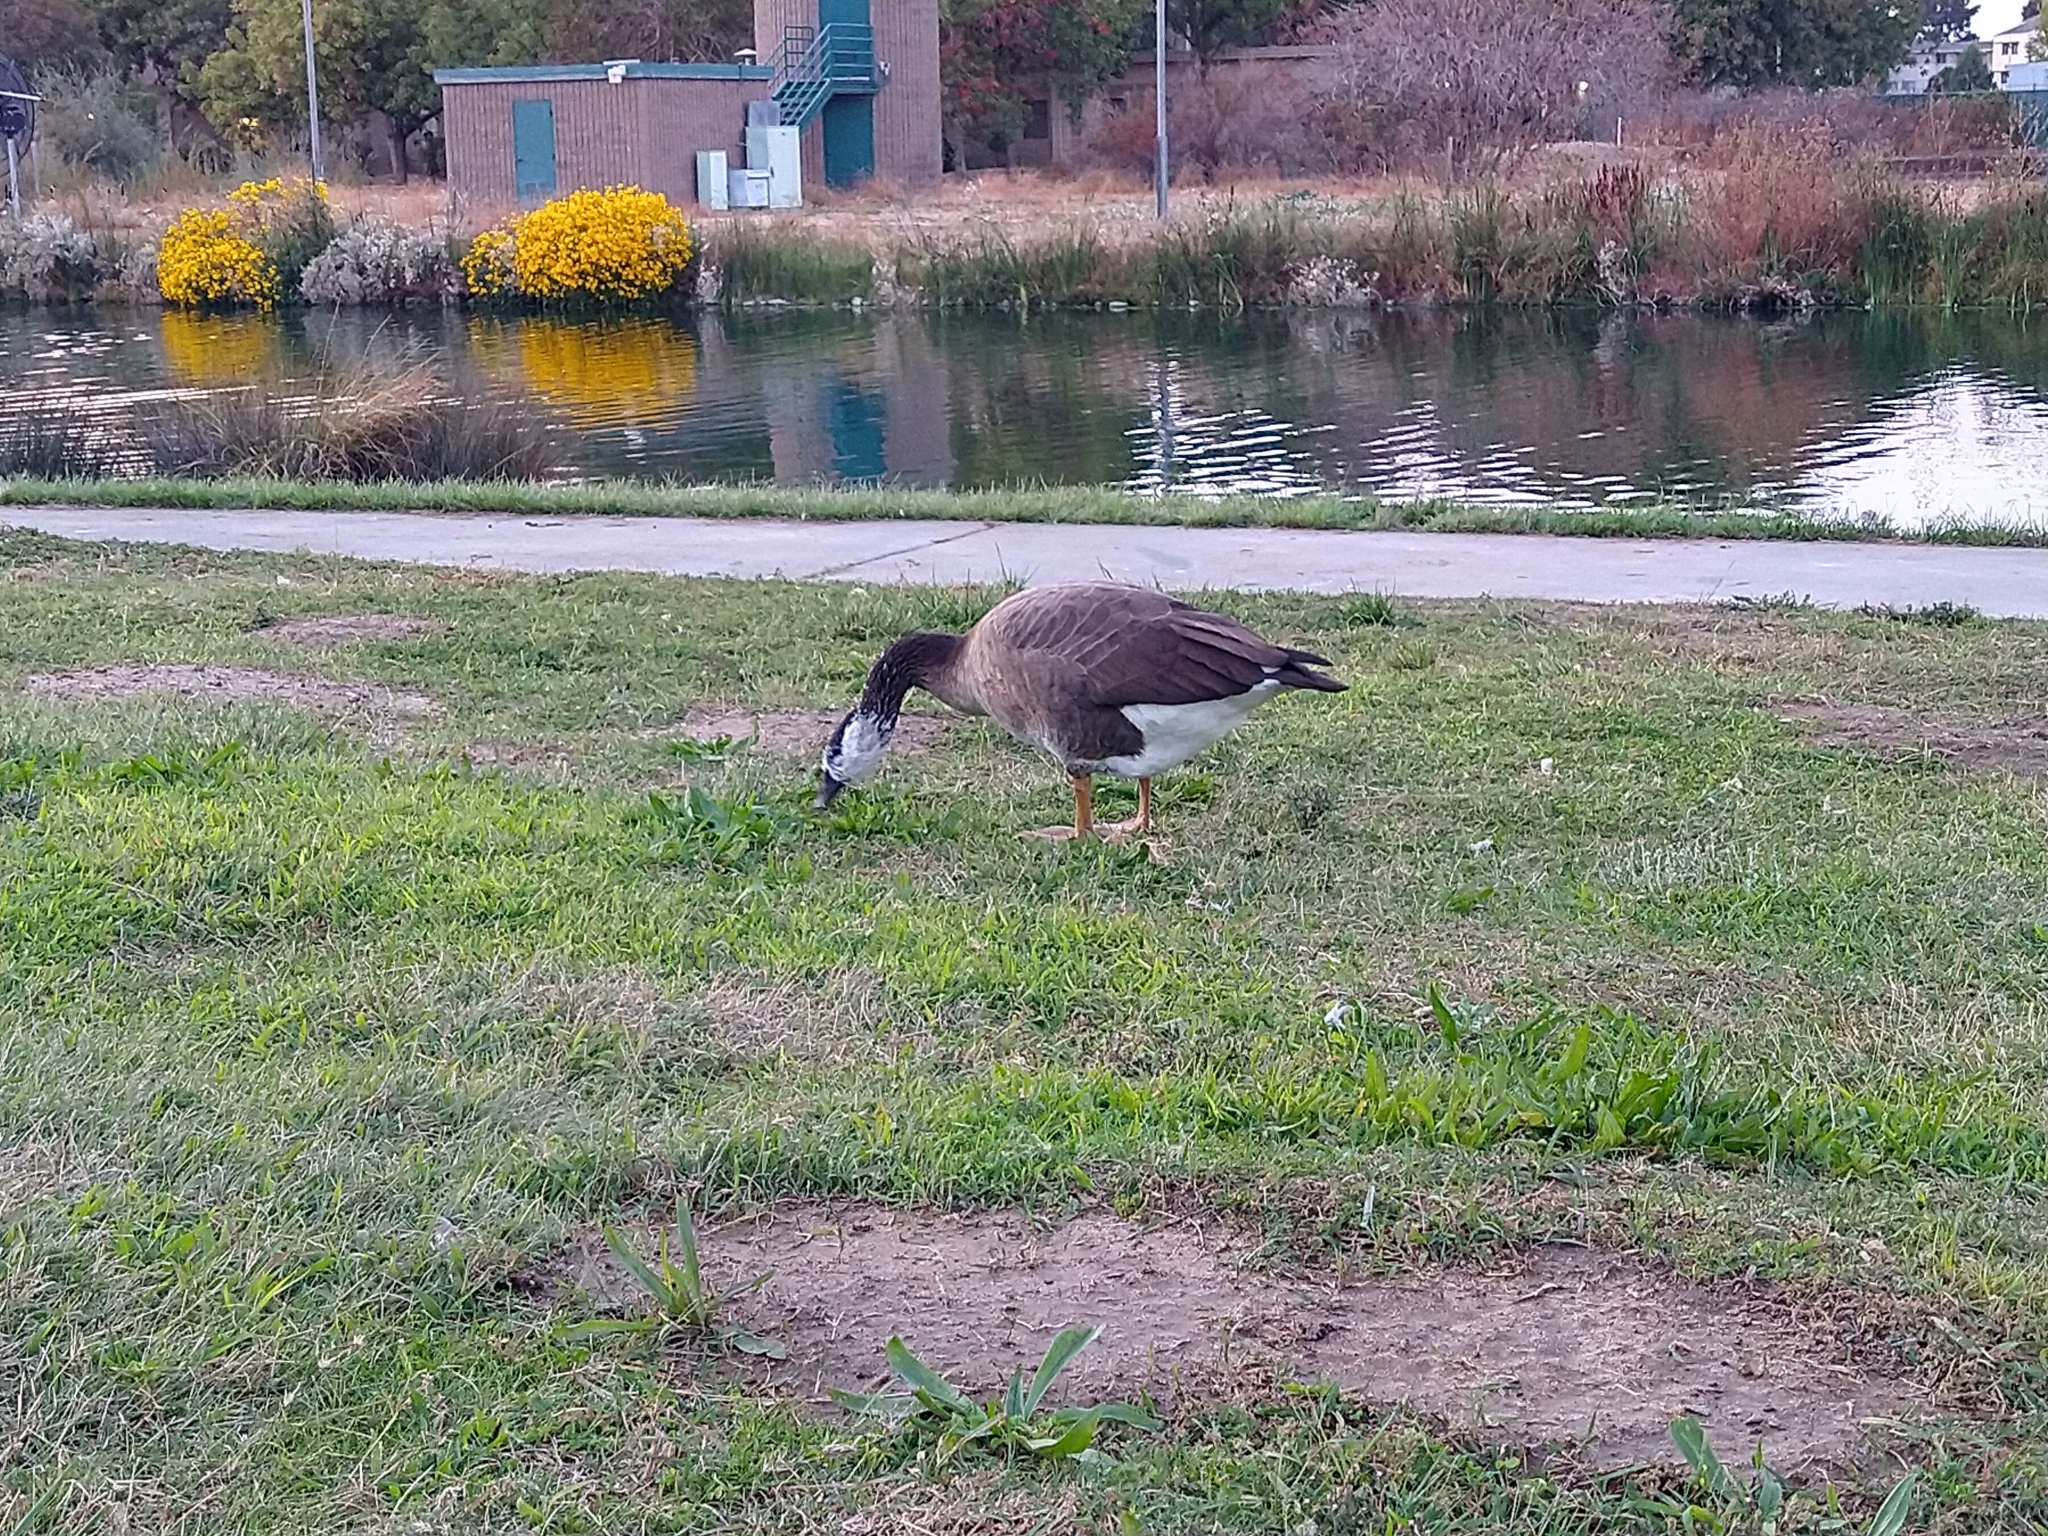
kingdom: Animalia
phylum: Chordata
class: Aves
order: Anseriformes
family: Anatidae
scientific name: Anatidae
